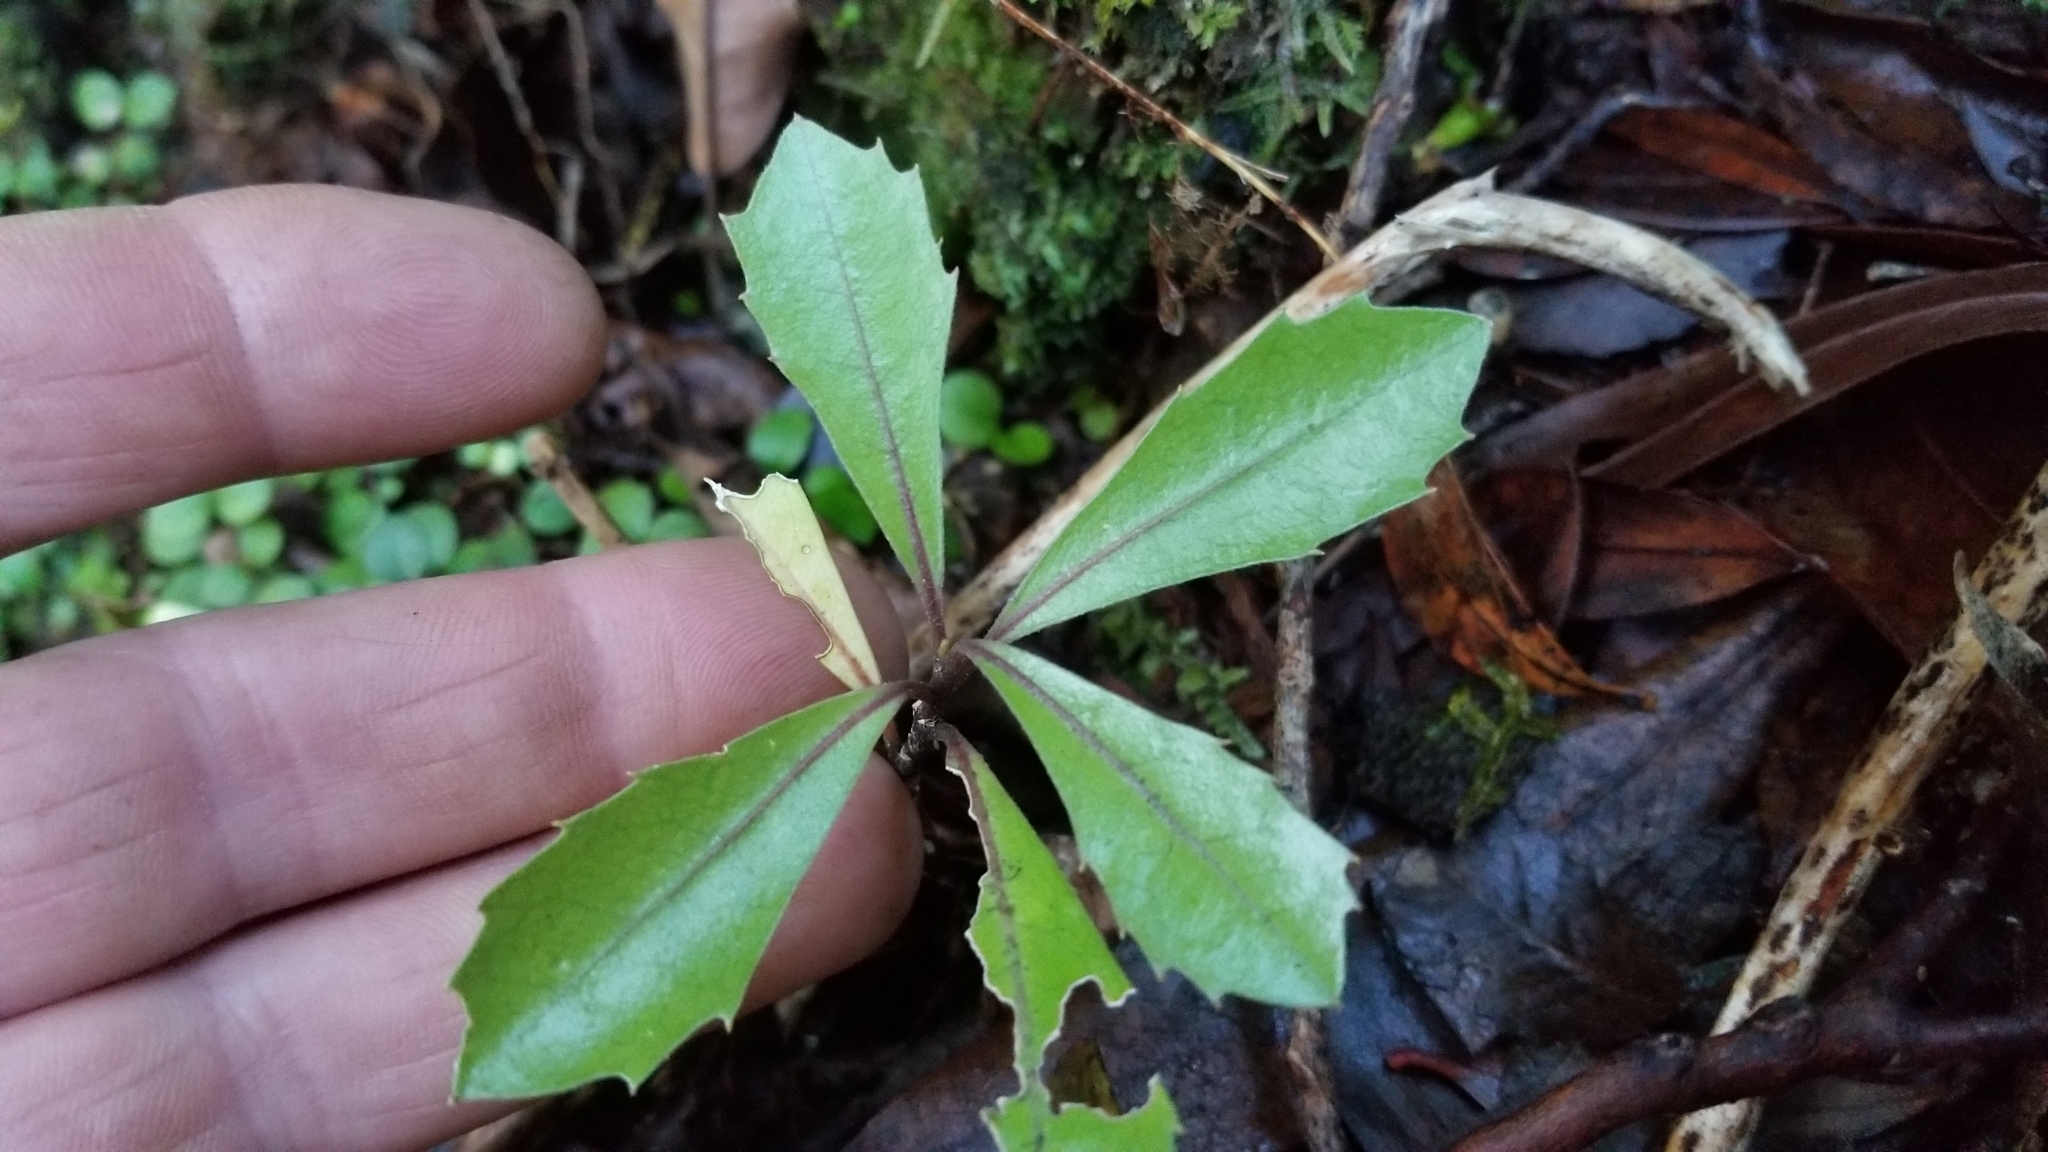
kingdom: Plantae
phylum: Tracheophyta
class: Magnoliopsida
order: Laurales
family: Monimiaceae
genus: Hedycarya
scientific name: Hedycarya arborea
